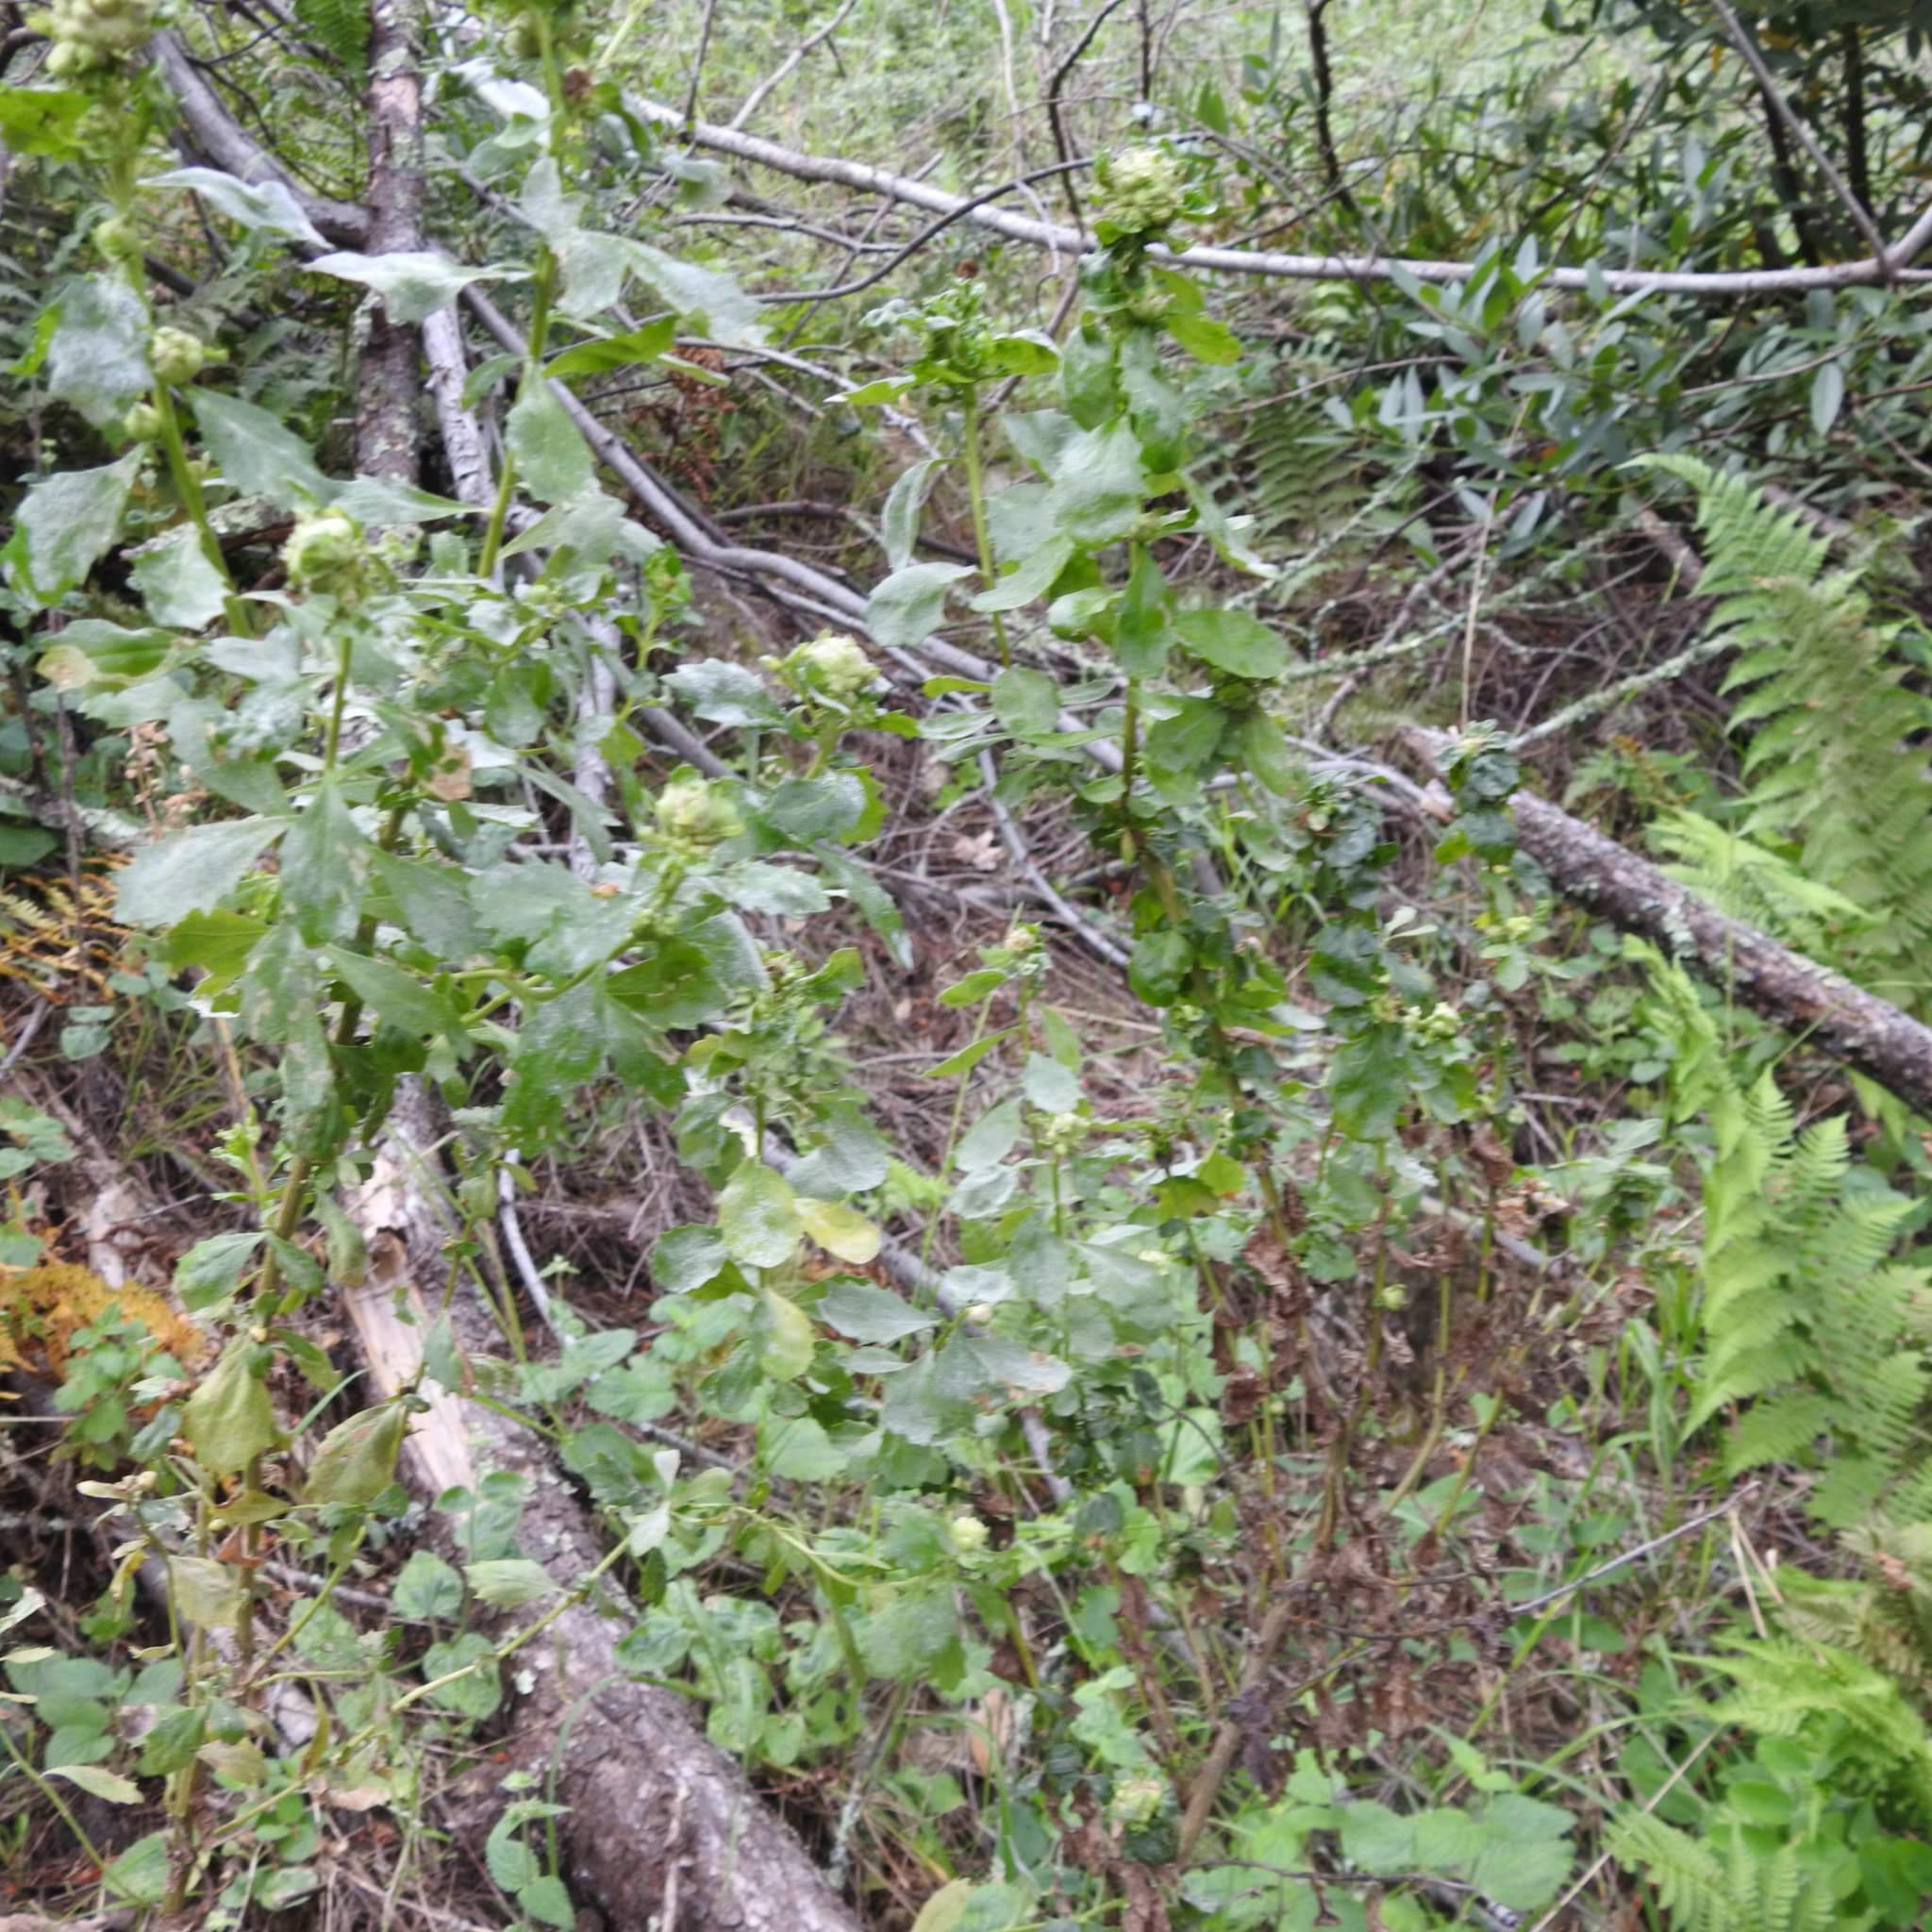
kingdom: Plantae
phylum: Tracheophyta
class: Magnoliopsida
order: Asterales
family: Asteraceae
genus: Baccharis
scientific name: Baccharis pilularis
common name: Coyotebrush
